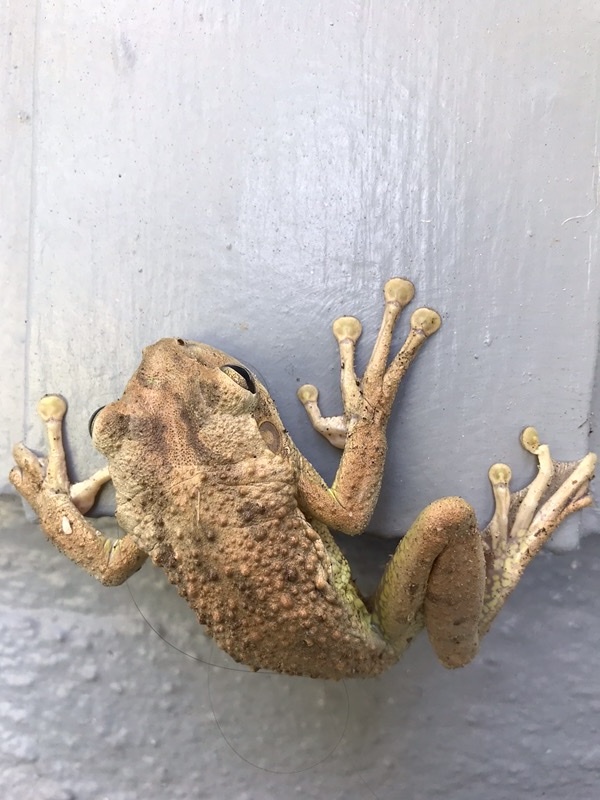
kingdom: Animalia
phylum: Chordata
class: Amphibia
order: Anura
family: Hylidae
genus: Osteopilus
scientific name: Osteopilus septentrionalis
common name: Cuban treefrog
